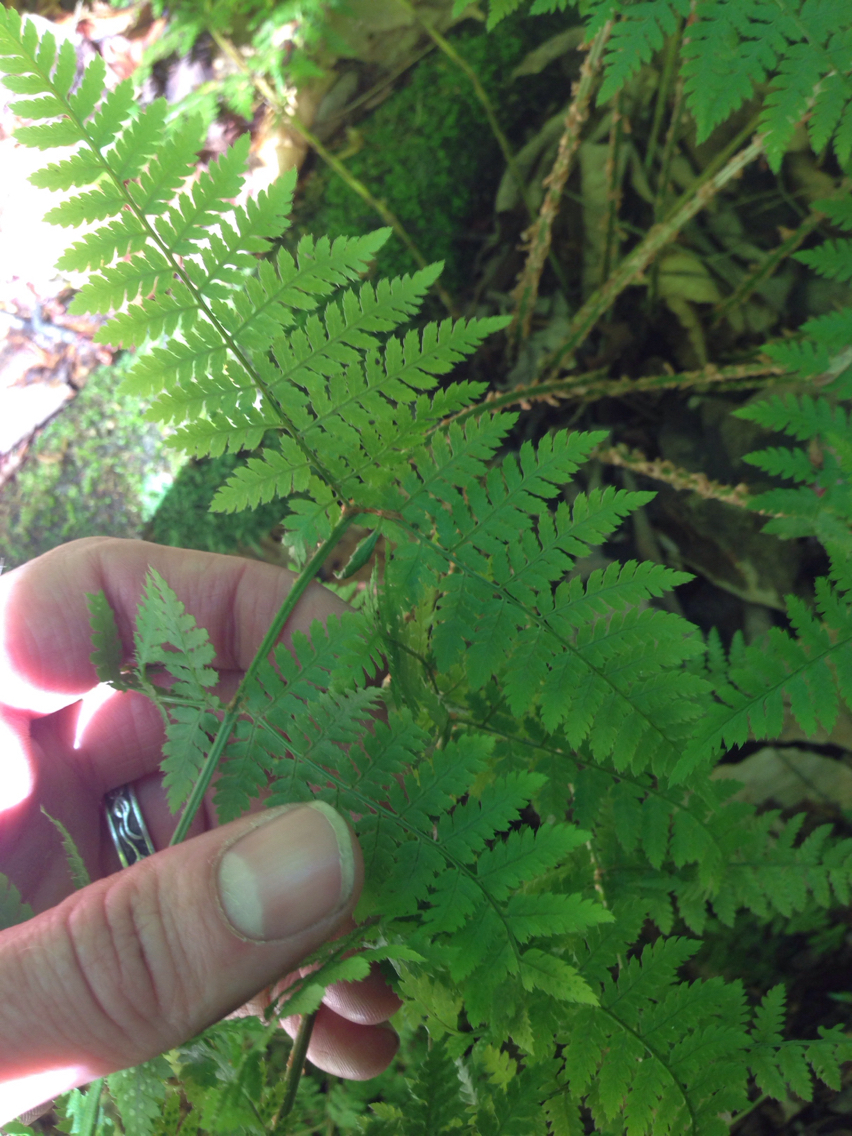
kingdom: Plantae
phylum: Tracheophyta
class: Polypodiopsida
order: Polypodiales
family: Dryopteridaceae
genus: Dryopteris
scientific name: Dryopteris intermedia
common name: Evergreen wood fern
